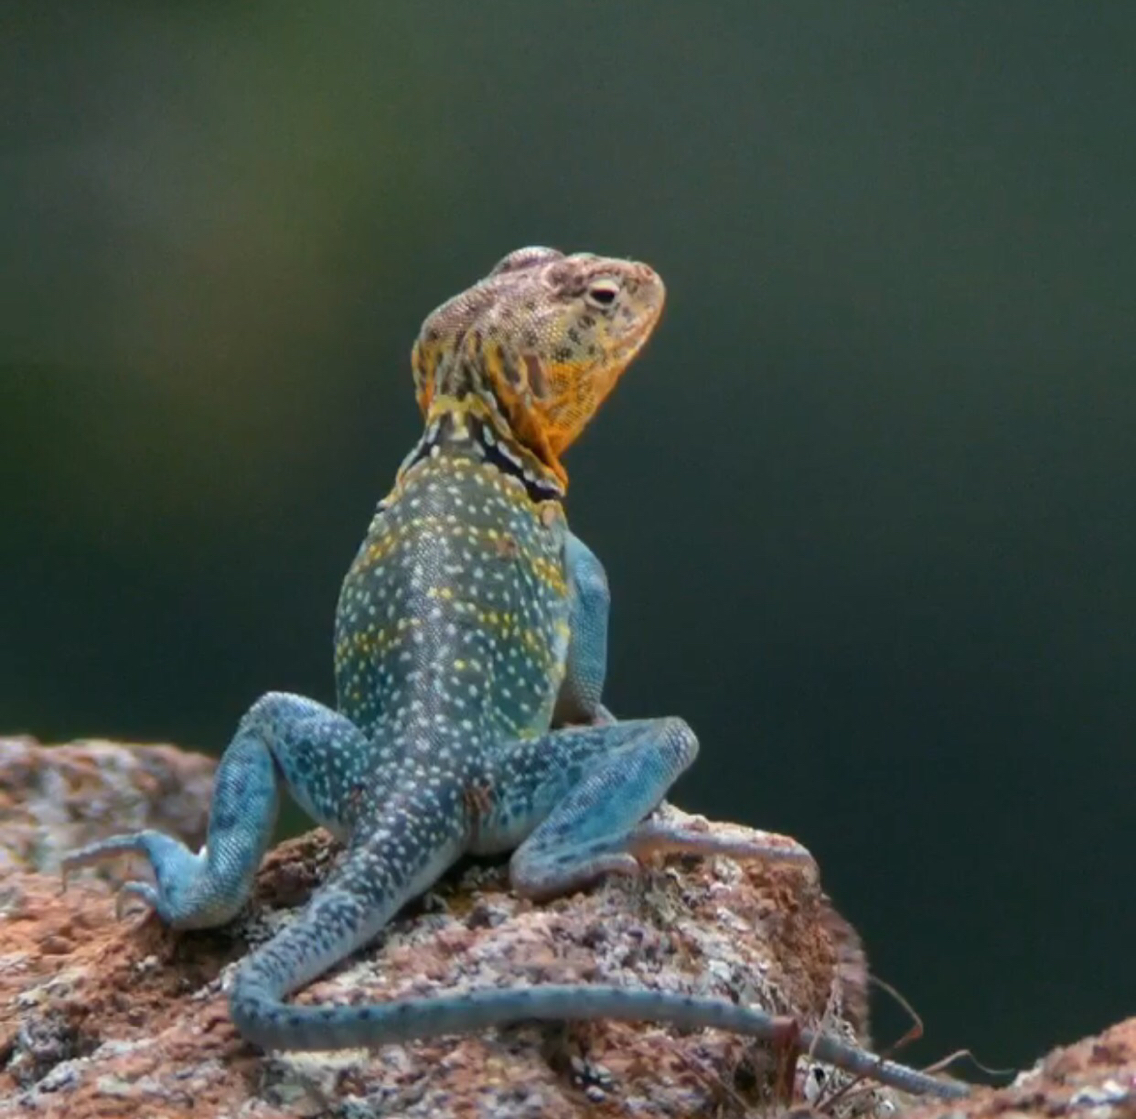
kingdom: Animalia
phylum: Chordata
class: Squamata
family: Crotaphytidae
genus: Crotaphytus
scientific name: Crotaphytus collaris
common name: Collared lizard
